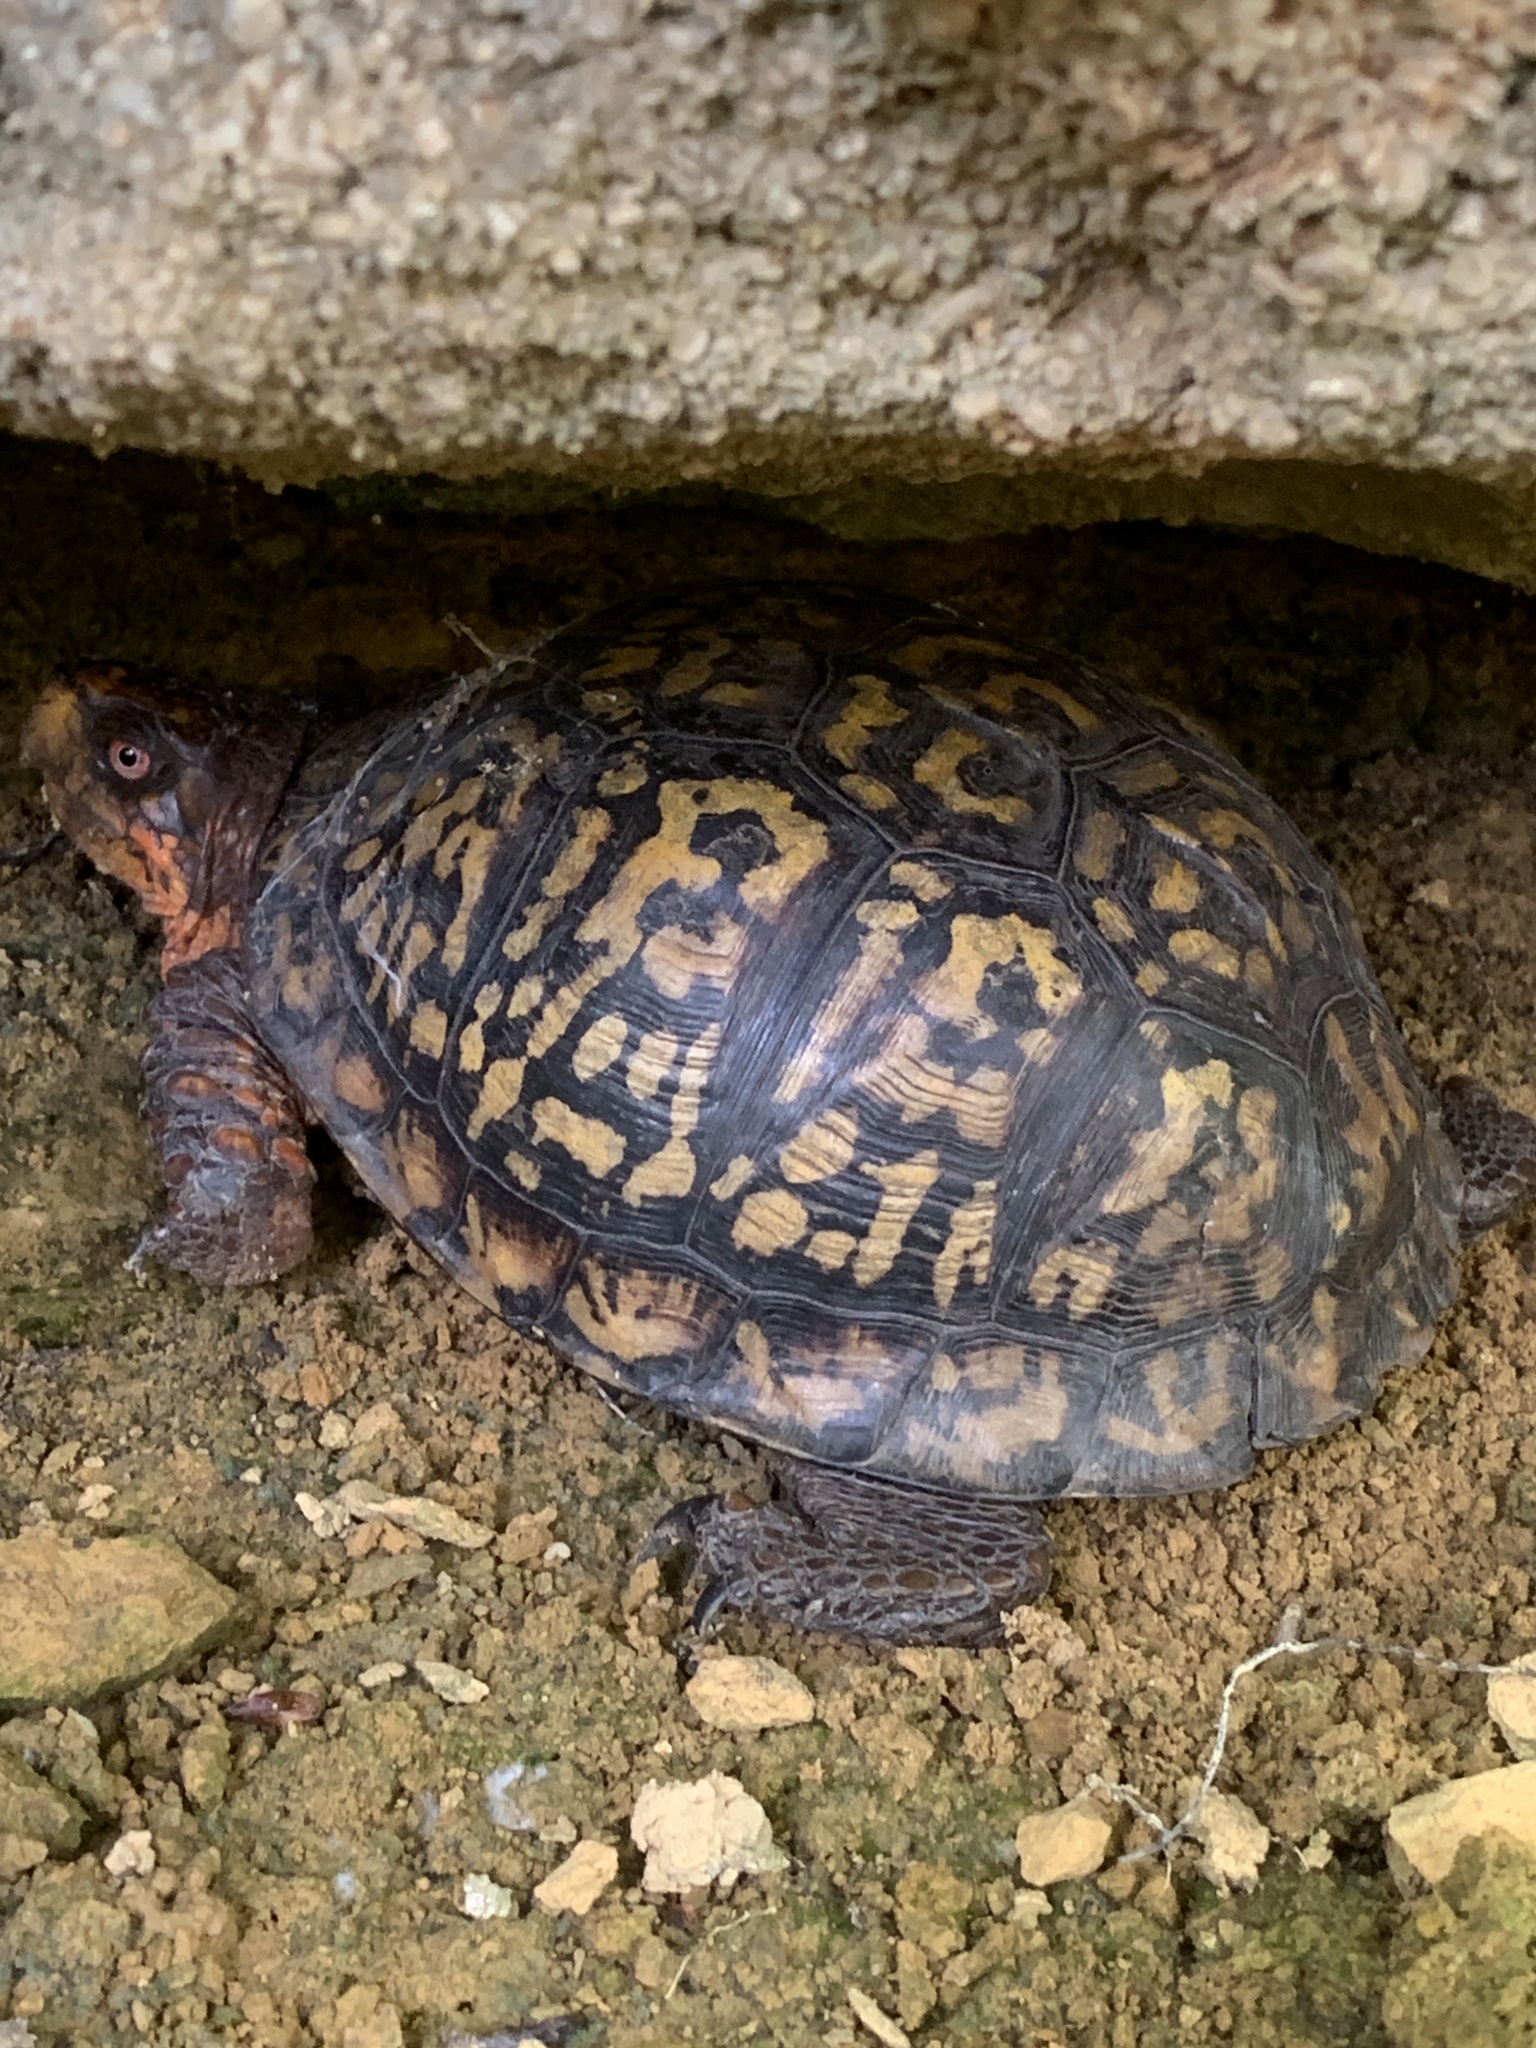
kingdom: Animalia
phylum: Chordata
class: Testudines
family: Emydidae
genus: Terrapene
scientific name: Terrapene carolina
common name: Common box turtle
